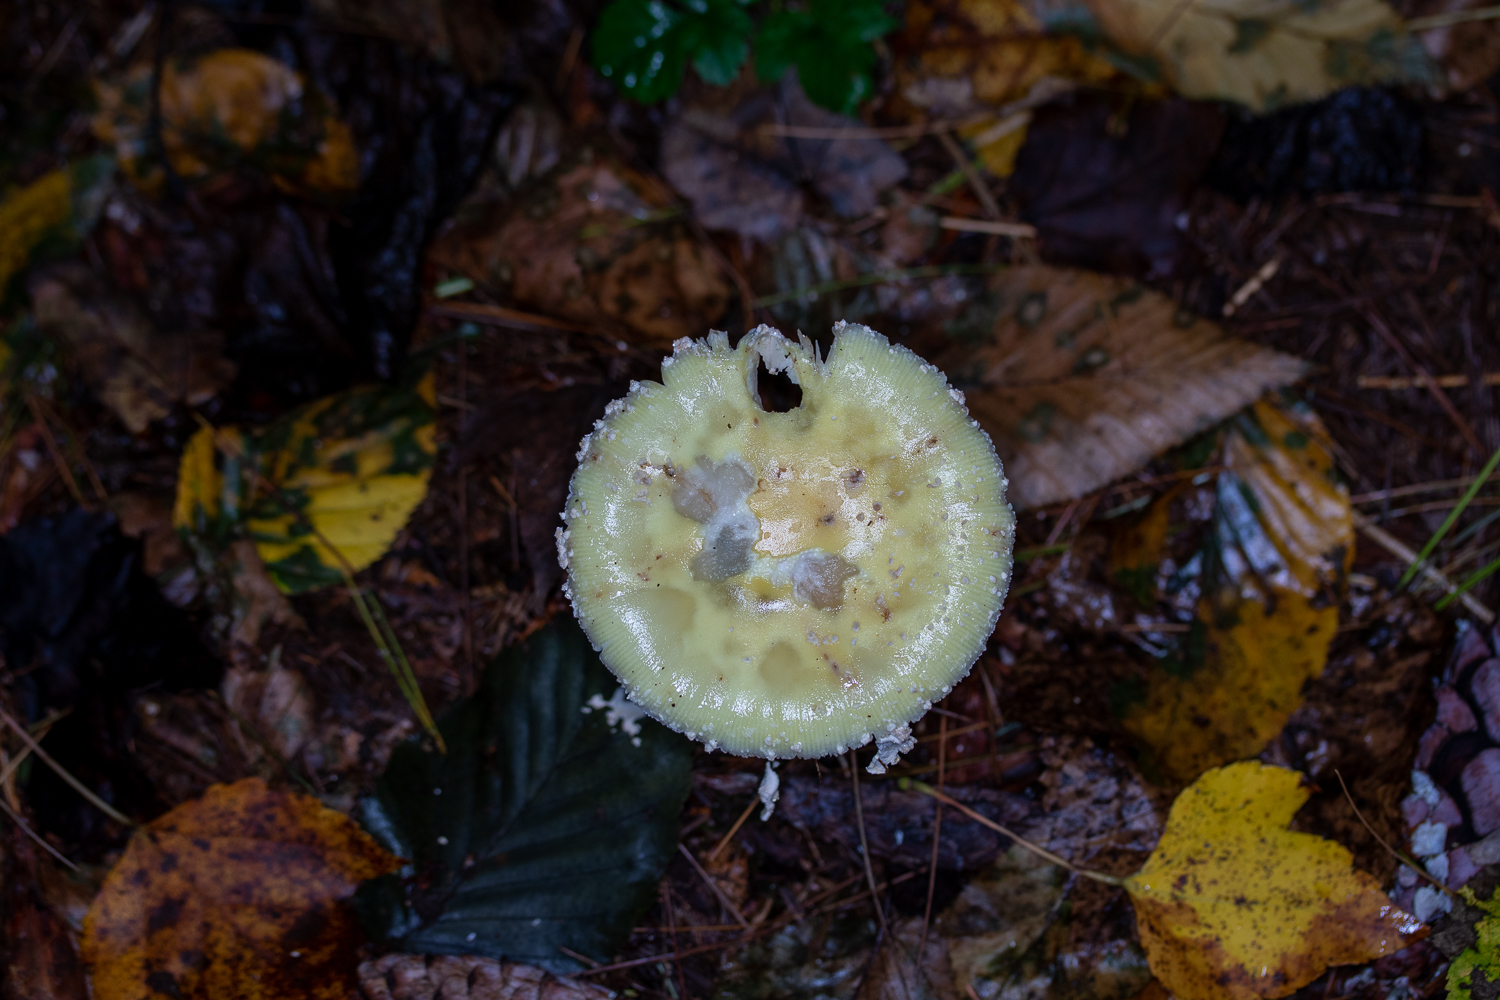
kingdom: Fungi
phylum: Basidiomycota
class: Agaricomycetes
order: Agaricales
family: Amanitaceae
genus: Amanita
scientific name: Amanita muscaria
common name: Fly agaric
